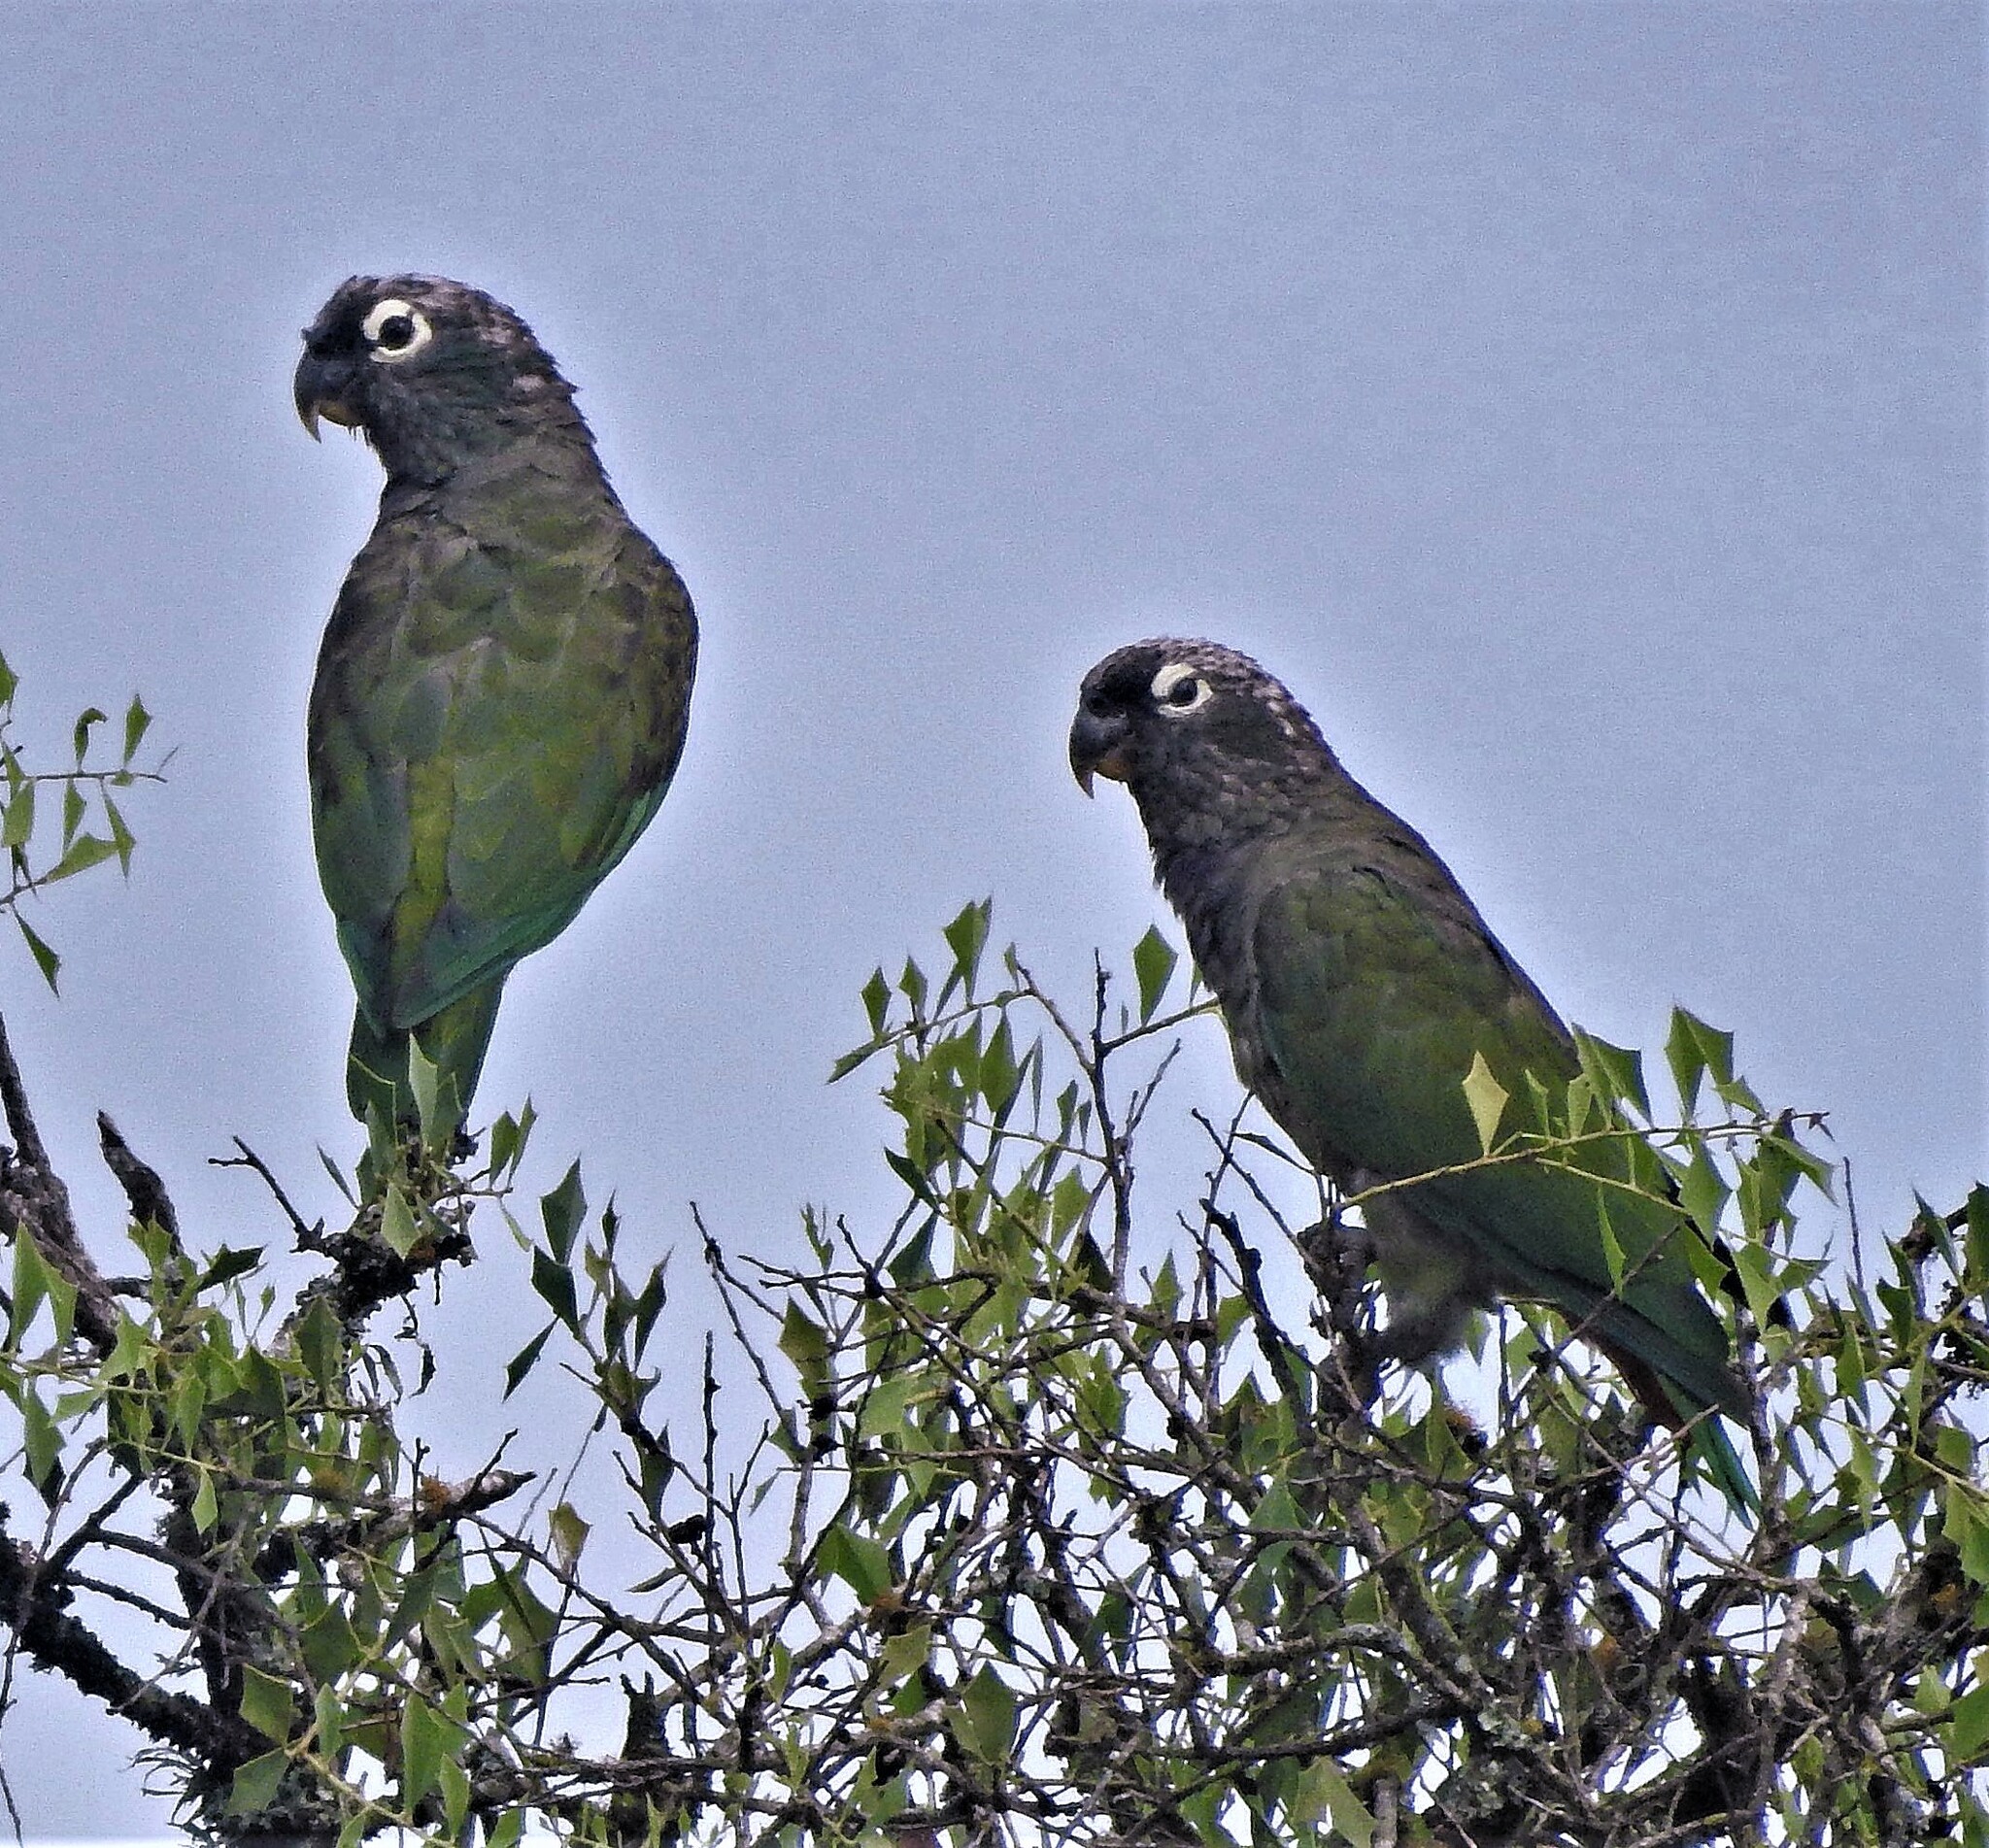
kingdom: Animalia
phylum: Chordata
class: Aves
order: Psittaciformes
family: Psittacidae
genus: Pionus
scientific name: Pionus maximiliani
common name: Scaly-headed parrot
